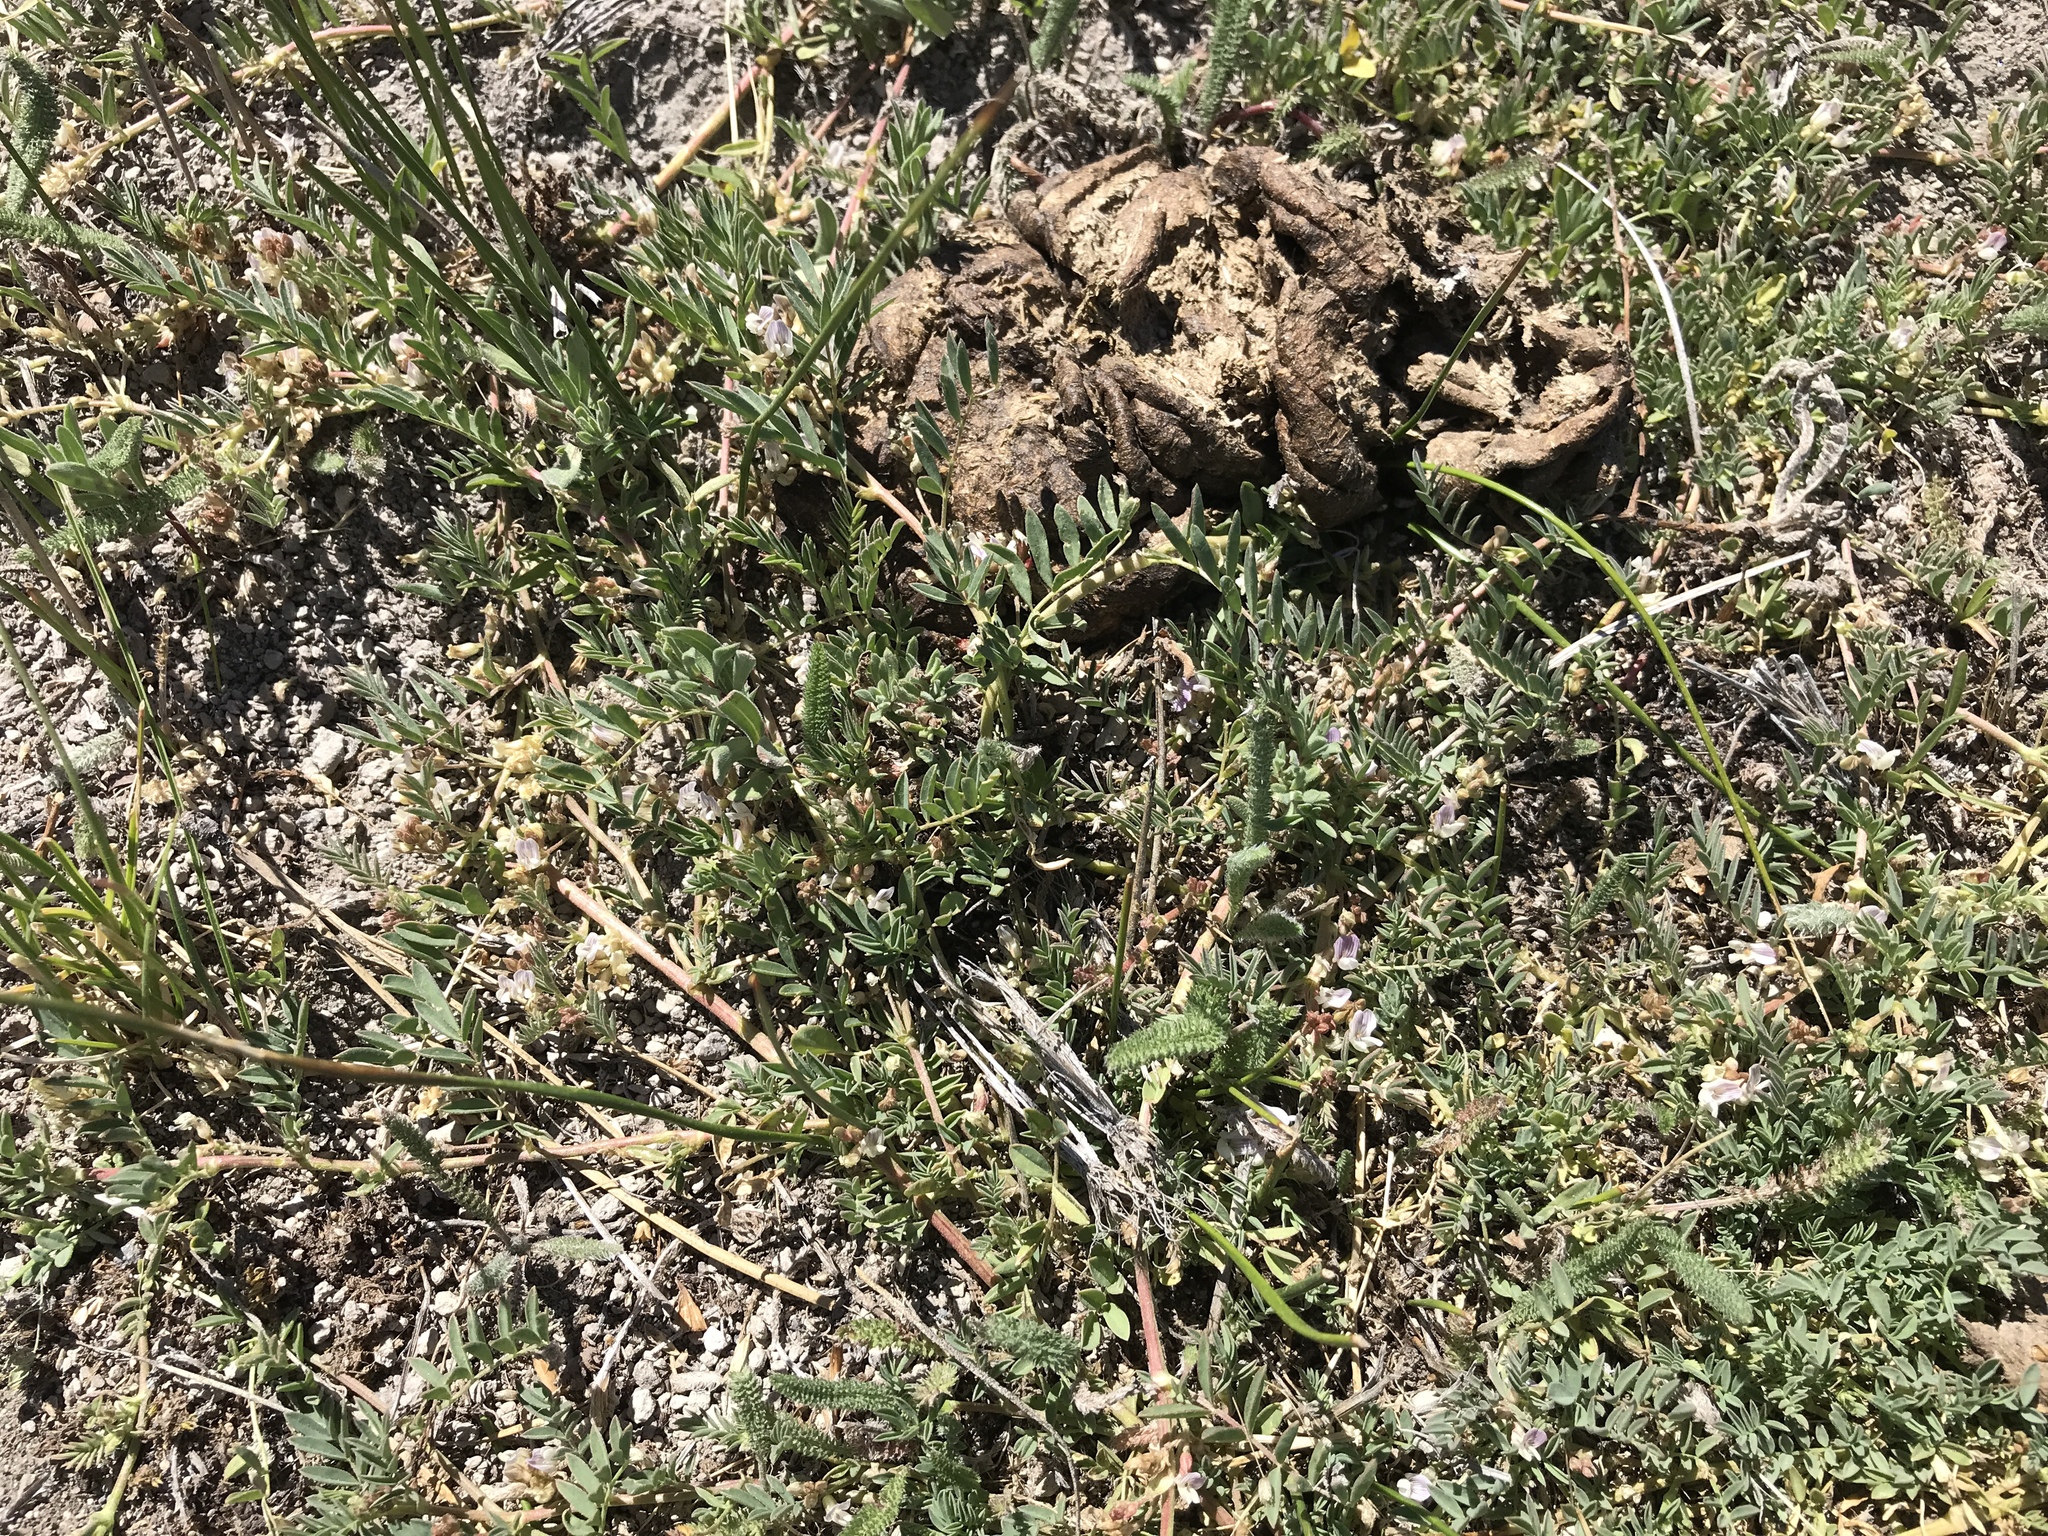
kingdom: Plantae
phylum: Tracheophyta
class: Magnoliopsida
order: Fabales
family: Fabaceae
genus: Astragalus
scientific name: Astragalus lemmonii
